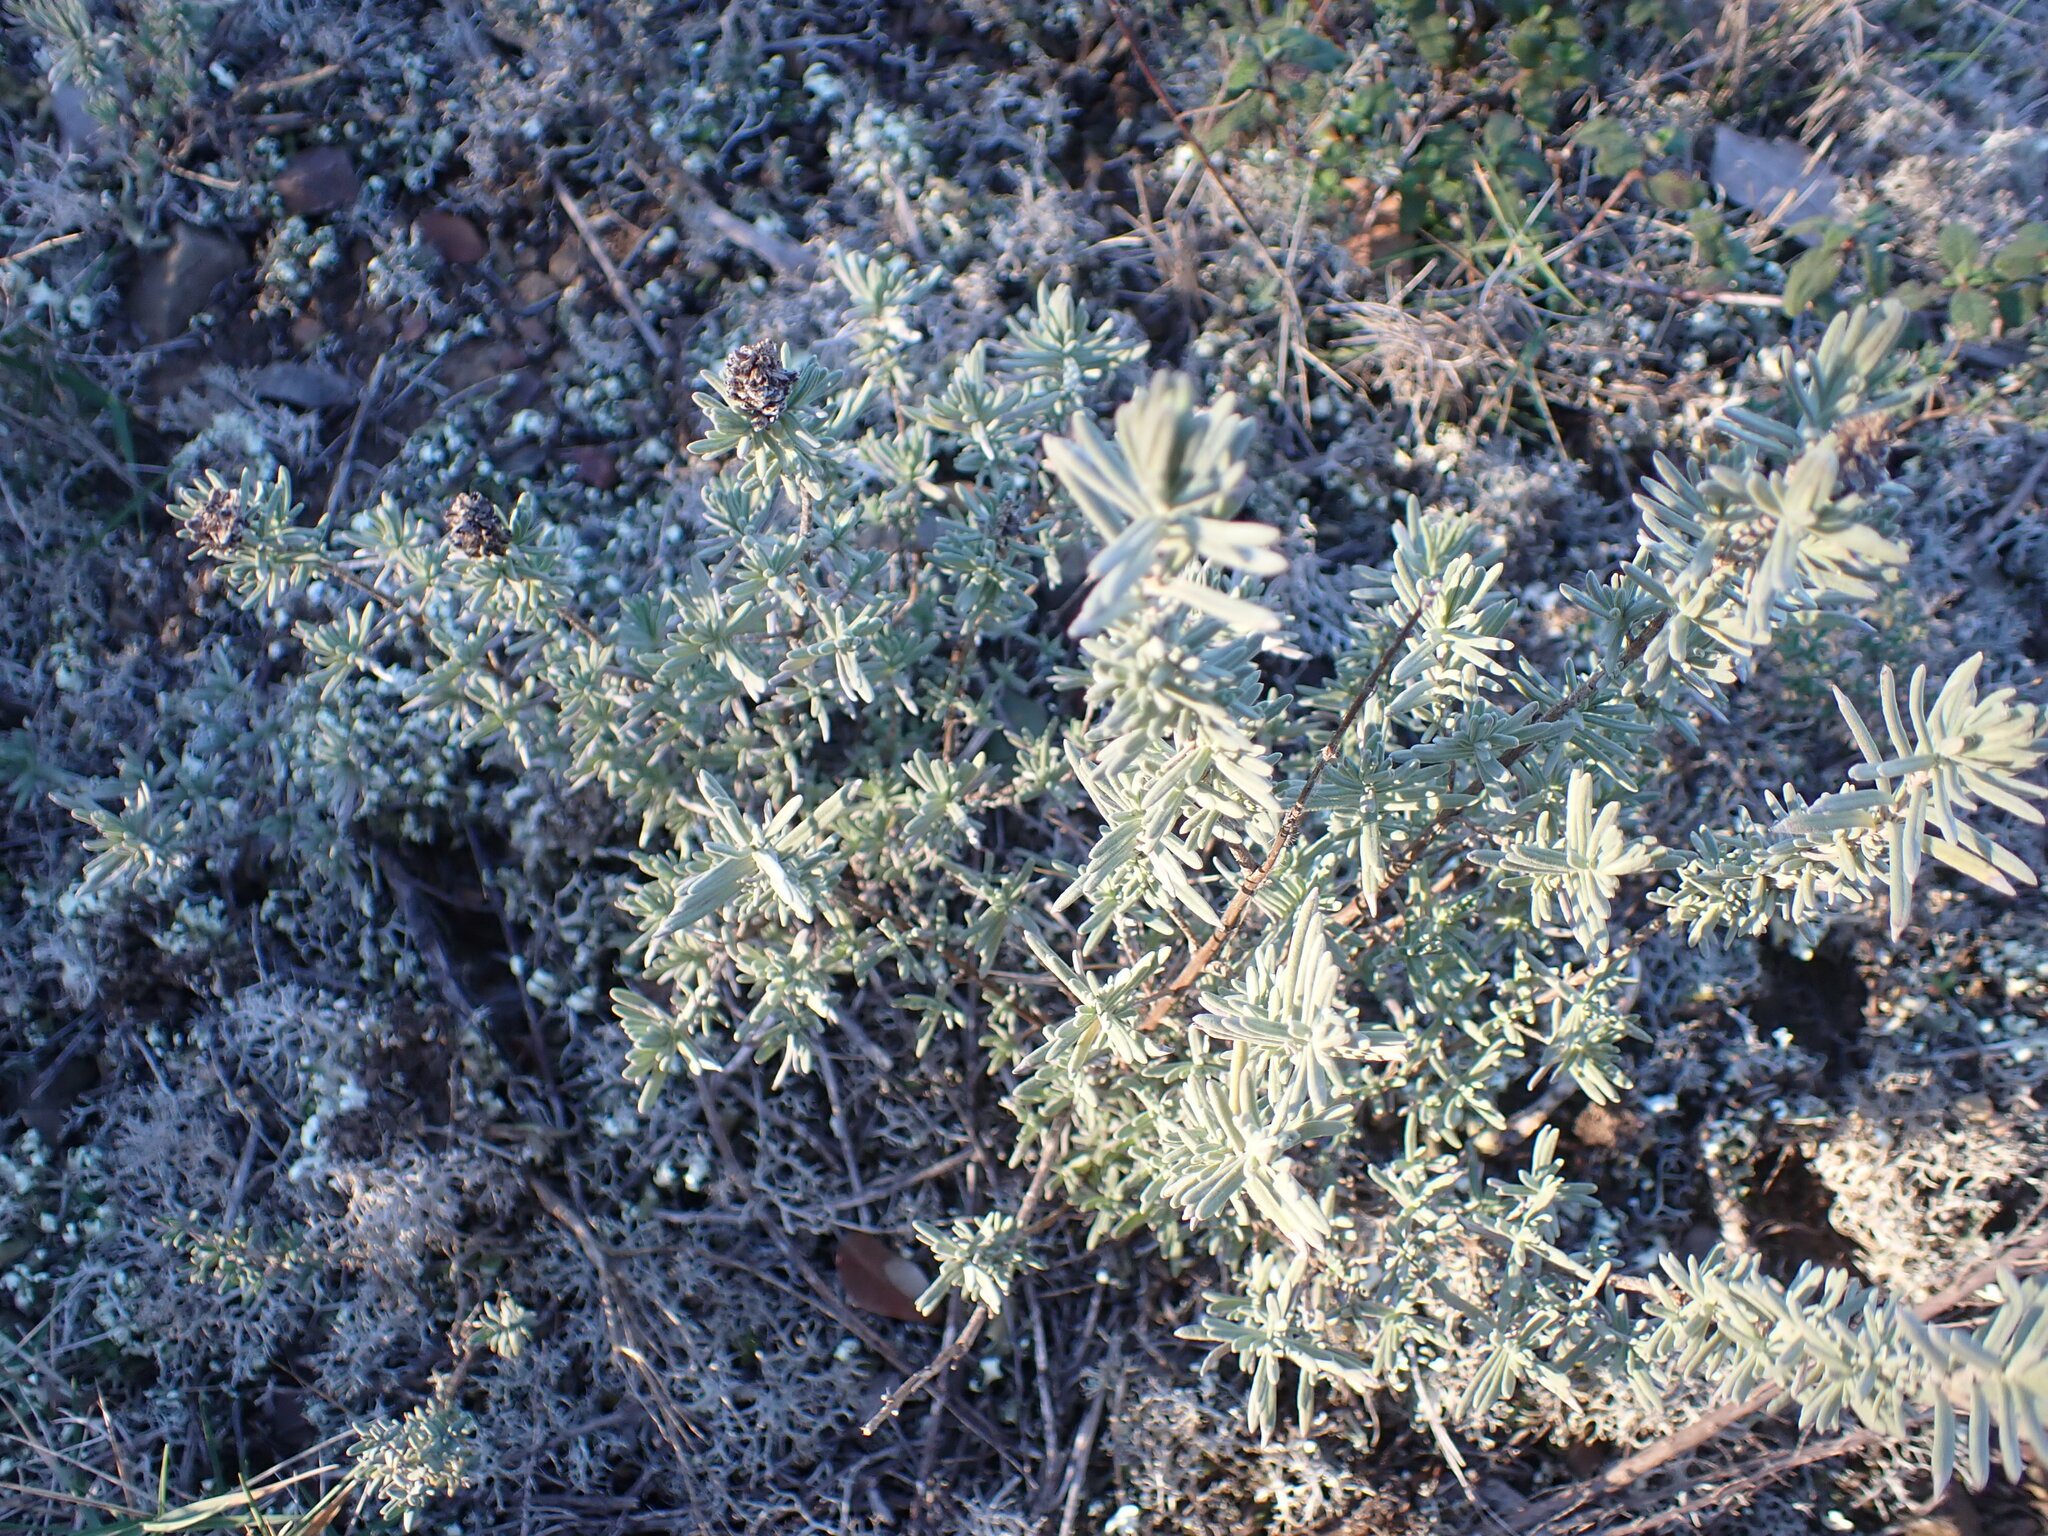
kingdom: Plantae
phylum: Tracheophyta
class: Magnoliopsida
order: Lamiales
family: Lamiaceae
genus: Lavandula
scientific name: Lavandula stoechas
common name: French lavender
